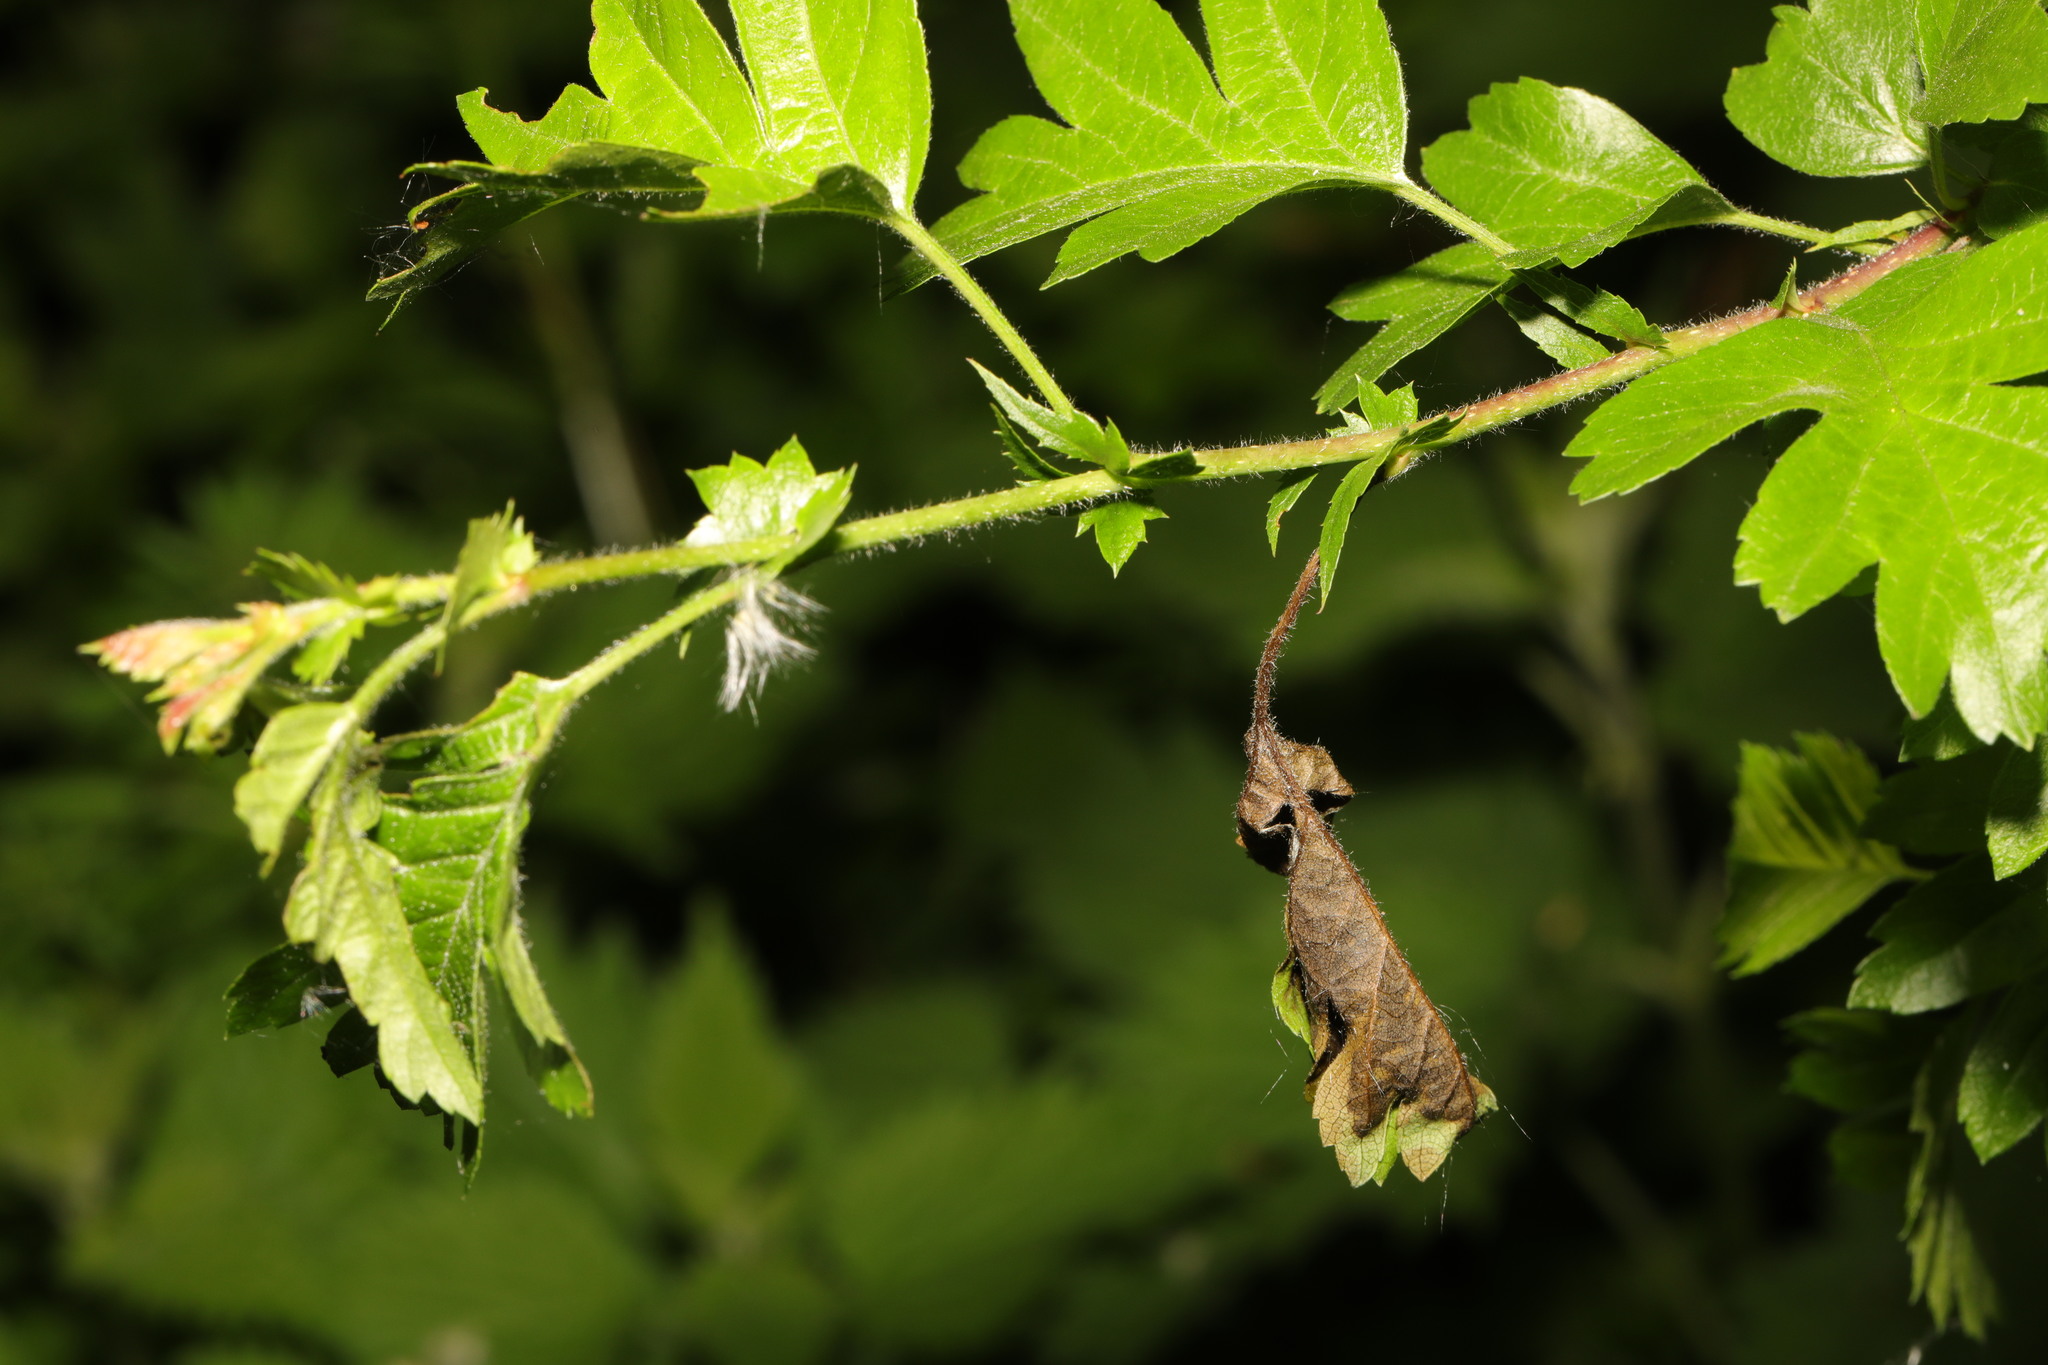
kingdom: Fungi
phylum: Ascomycota
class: Leotiomycetes
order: Helotiales
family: Sclerotiniaceae
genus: Monilinia
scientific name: Monilinia johnsonii
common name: Haw goblet
